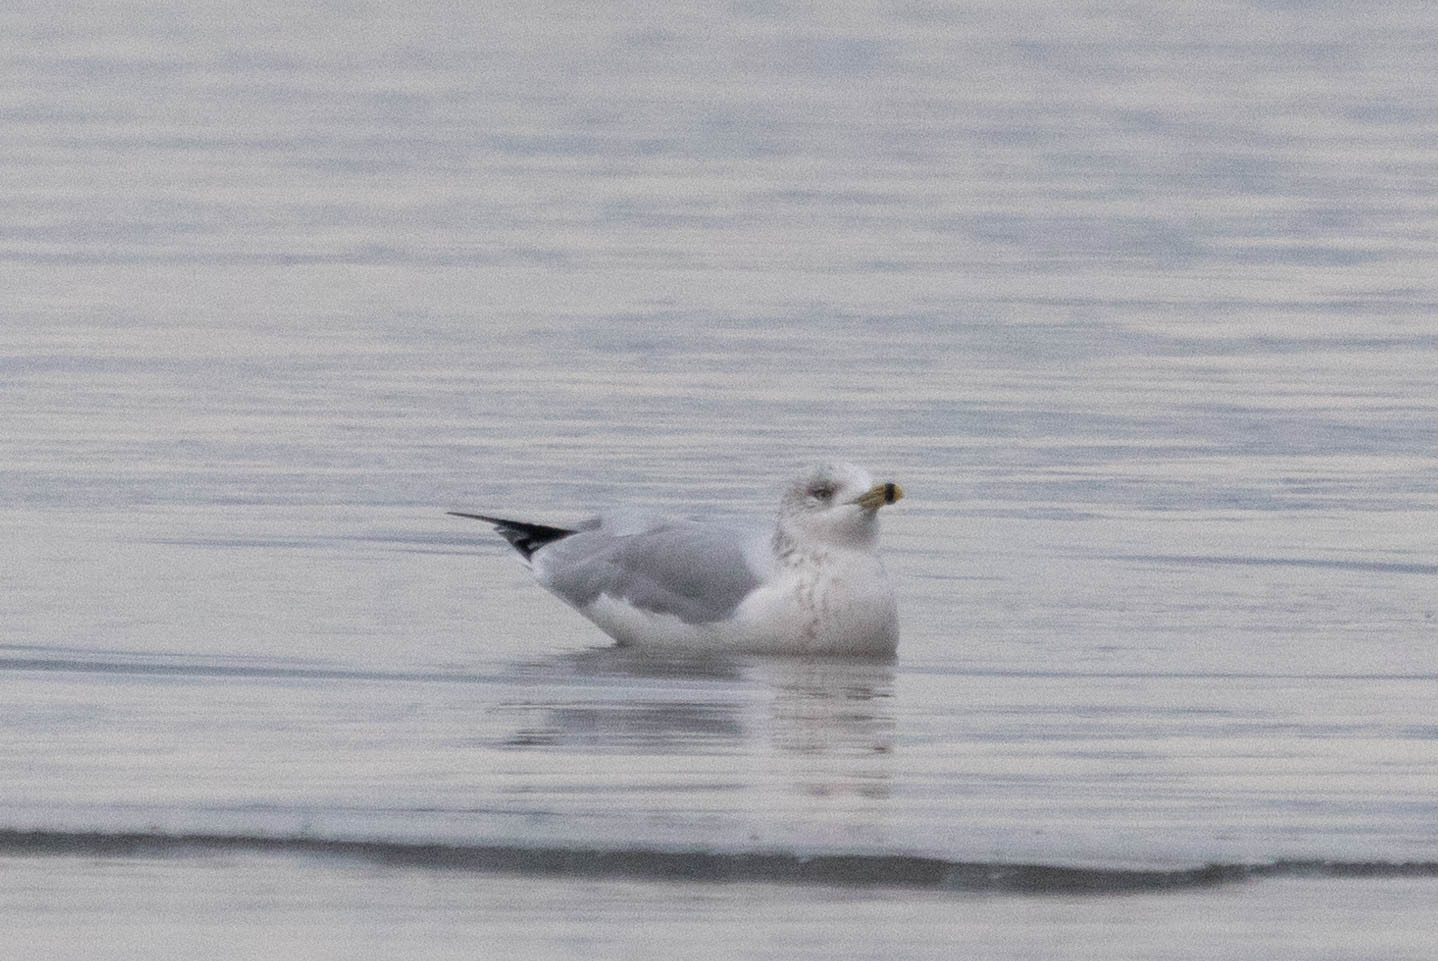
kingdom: Animalia
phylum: Chordata
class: Aves
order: Charadriiformes
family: Laridae
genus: Larus
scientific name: Larus delawarensis
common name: Ring-billed gull
